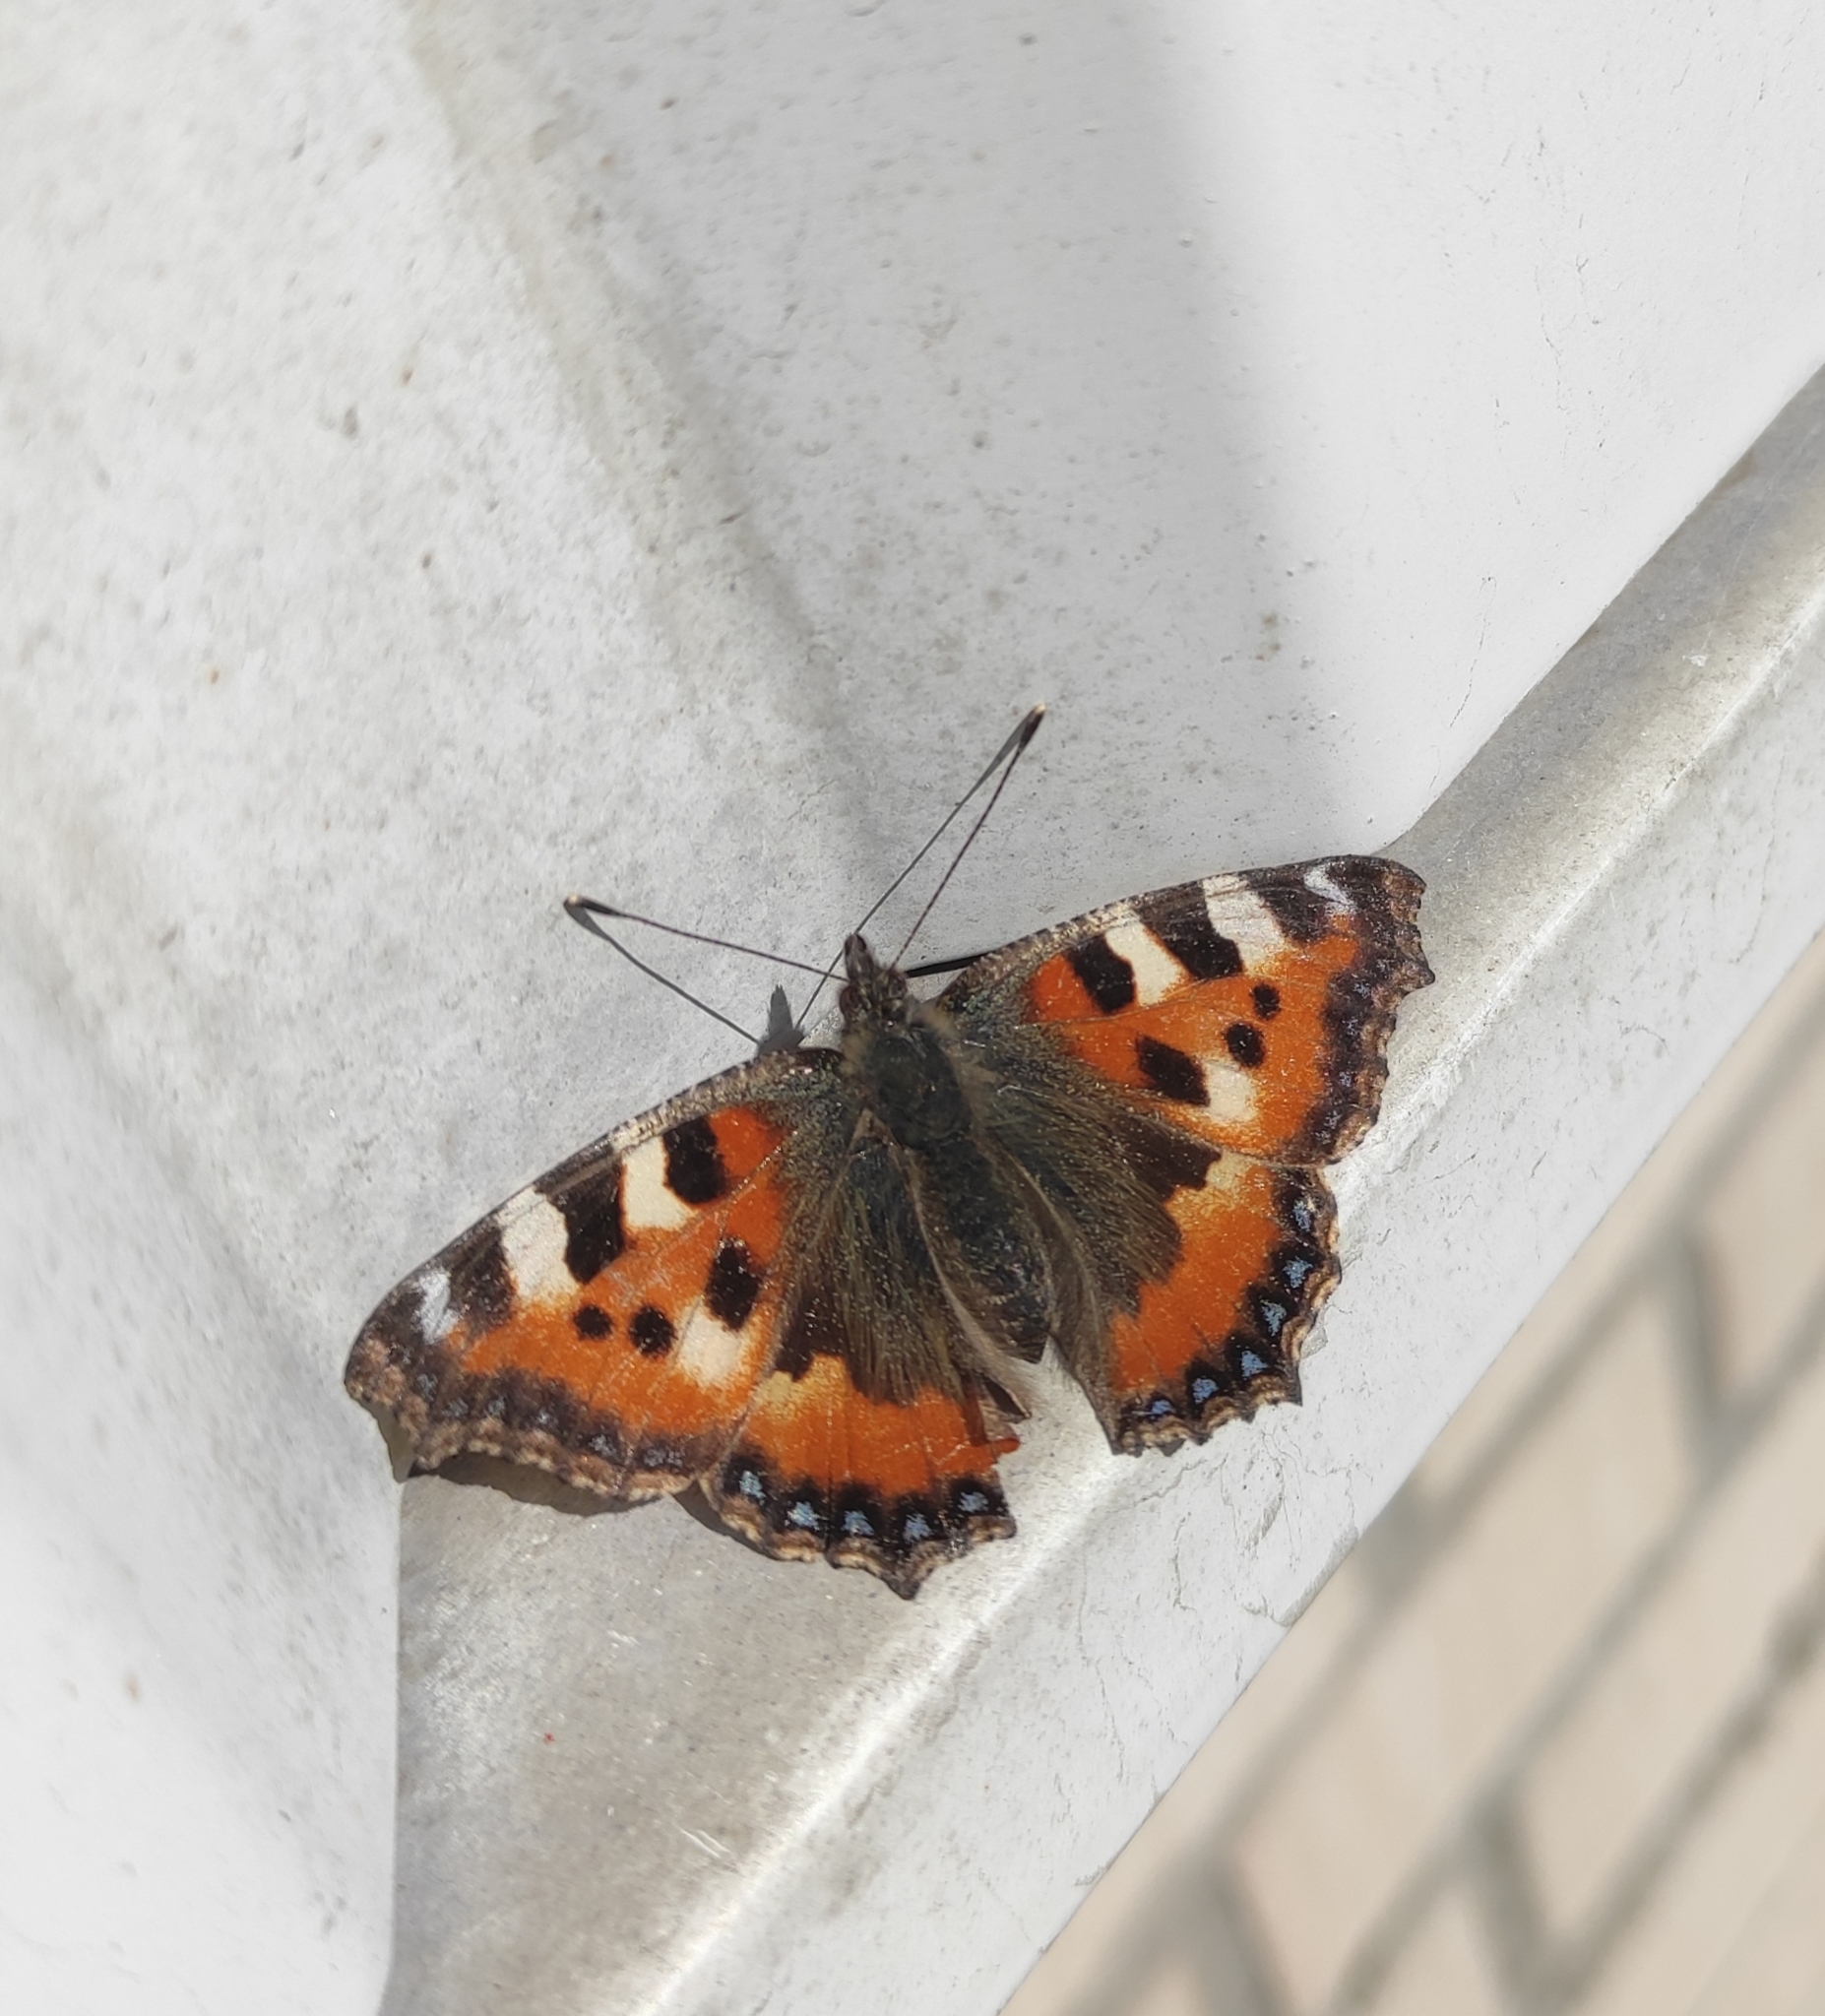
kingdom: Animalia
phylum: Arthropoda
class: Insecta
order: Lepidoptera
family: Nymphalidae
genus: Aglais
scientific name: Aglais urticae
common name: Small tortoiseshell
